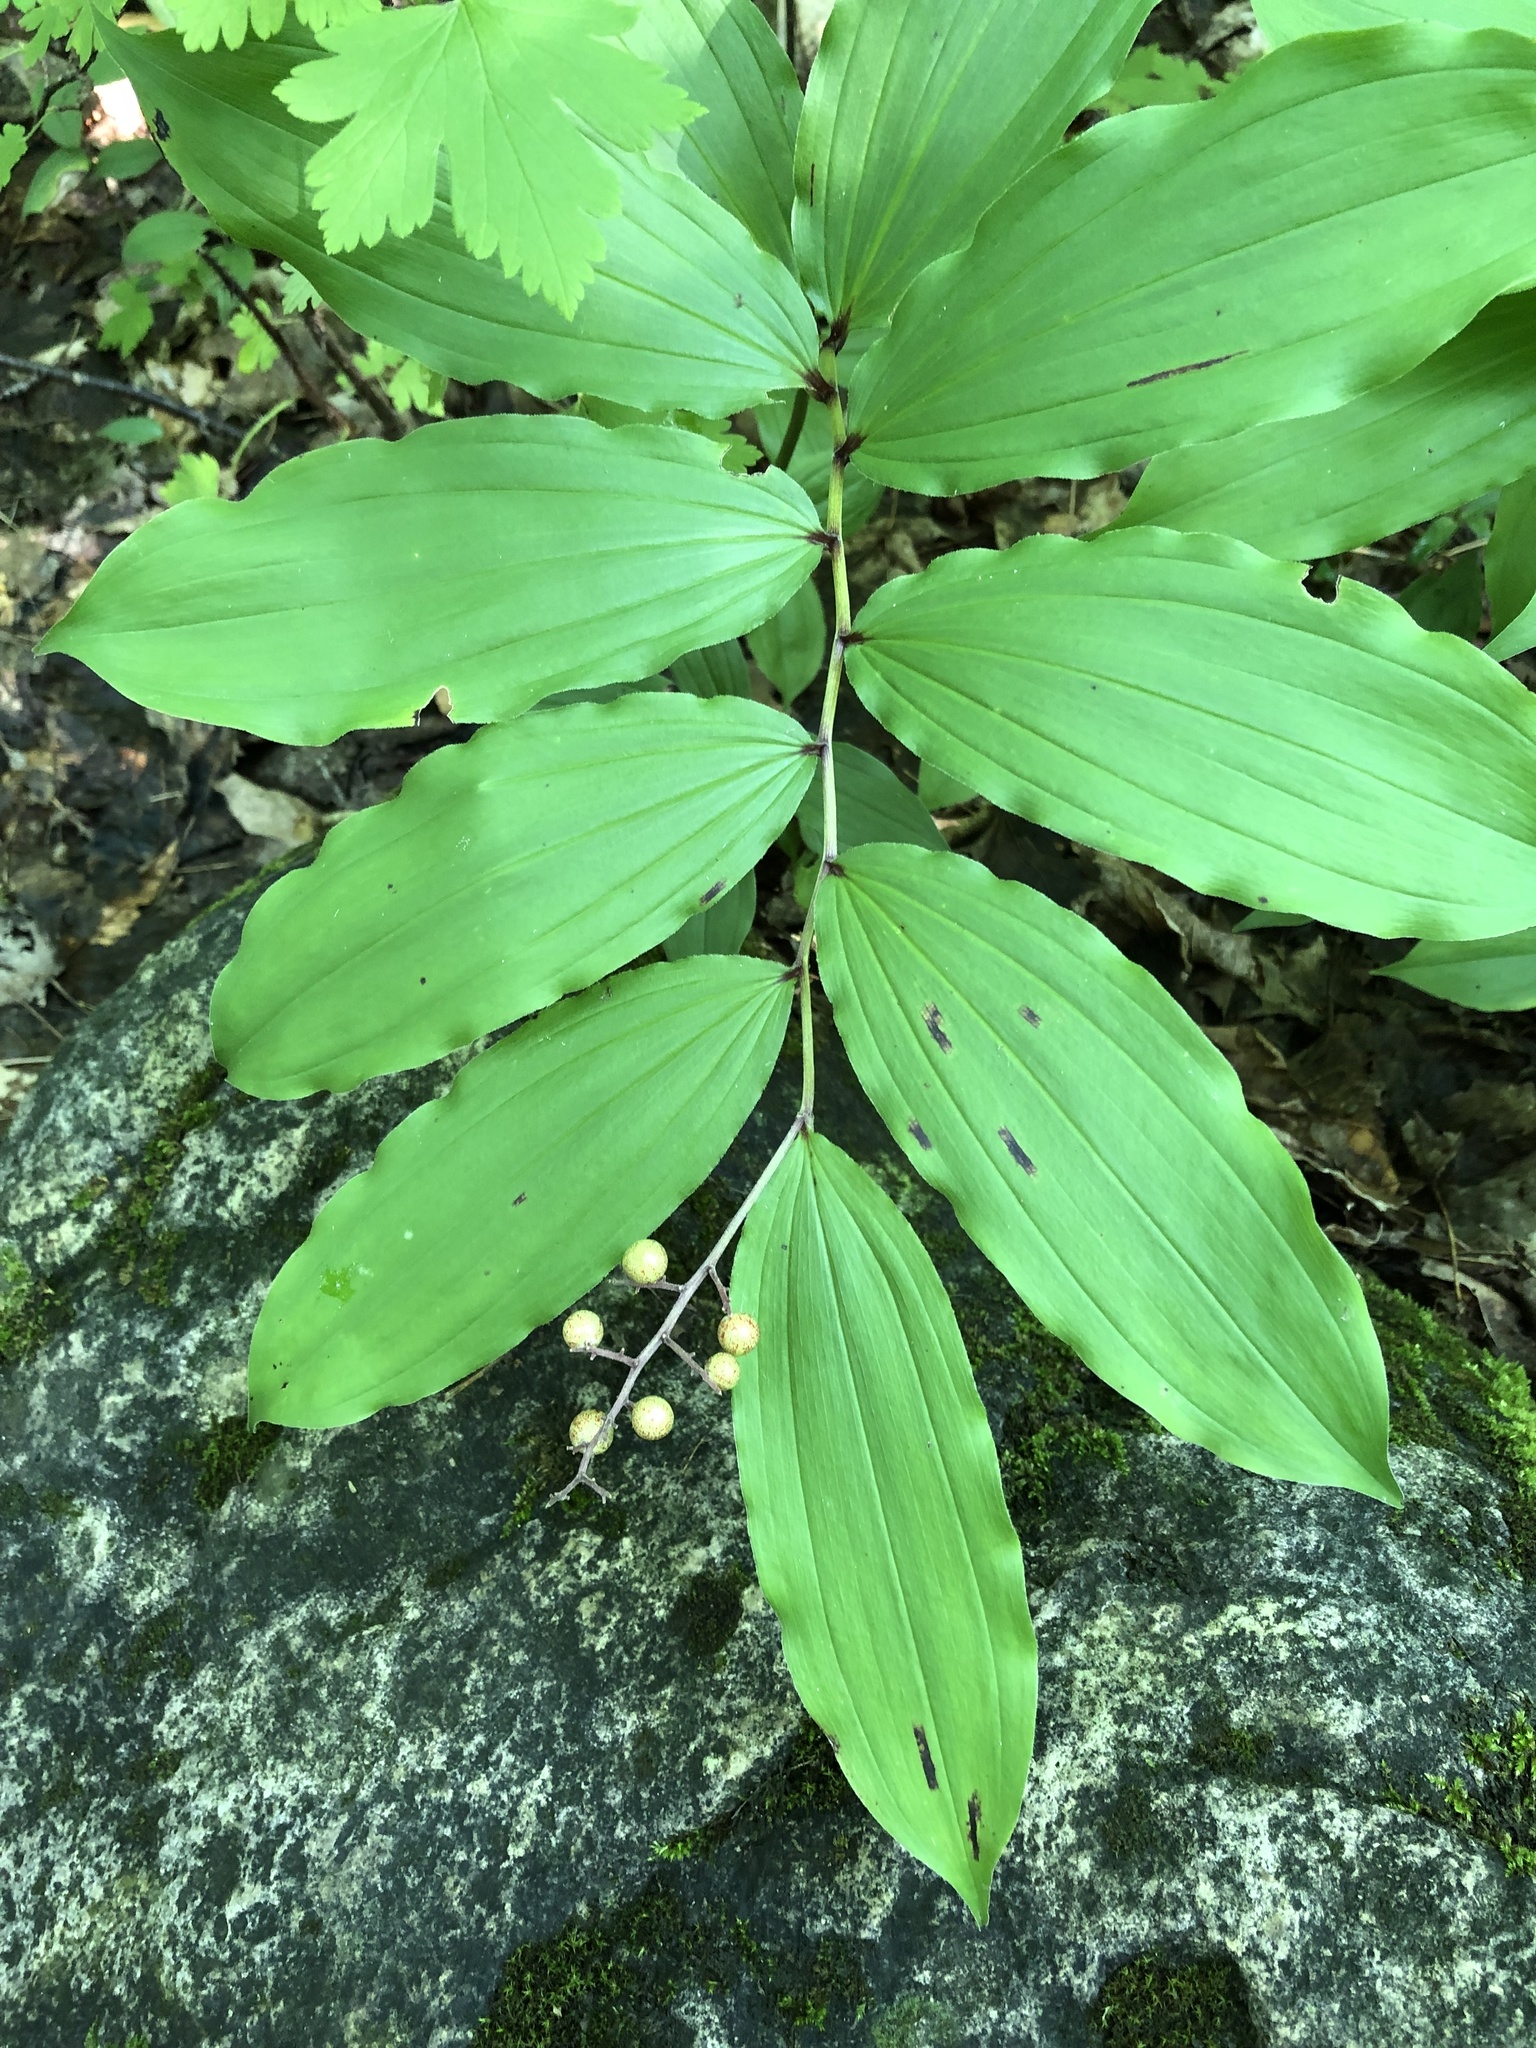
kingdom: Plantae
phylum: Tracheophyta
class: Liliopsida
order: Asparagales
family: Asparagaceae
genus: Maianthemum
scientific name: Maianthemum racemosum
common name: False spikenard
